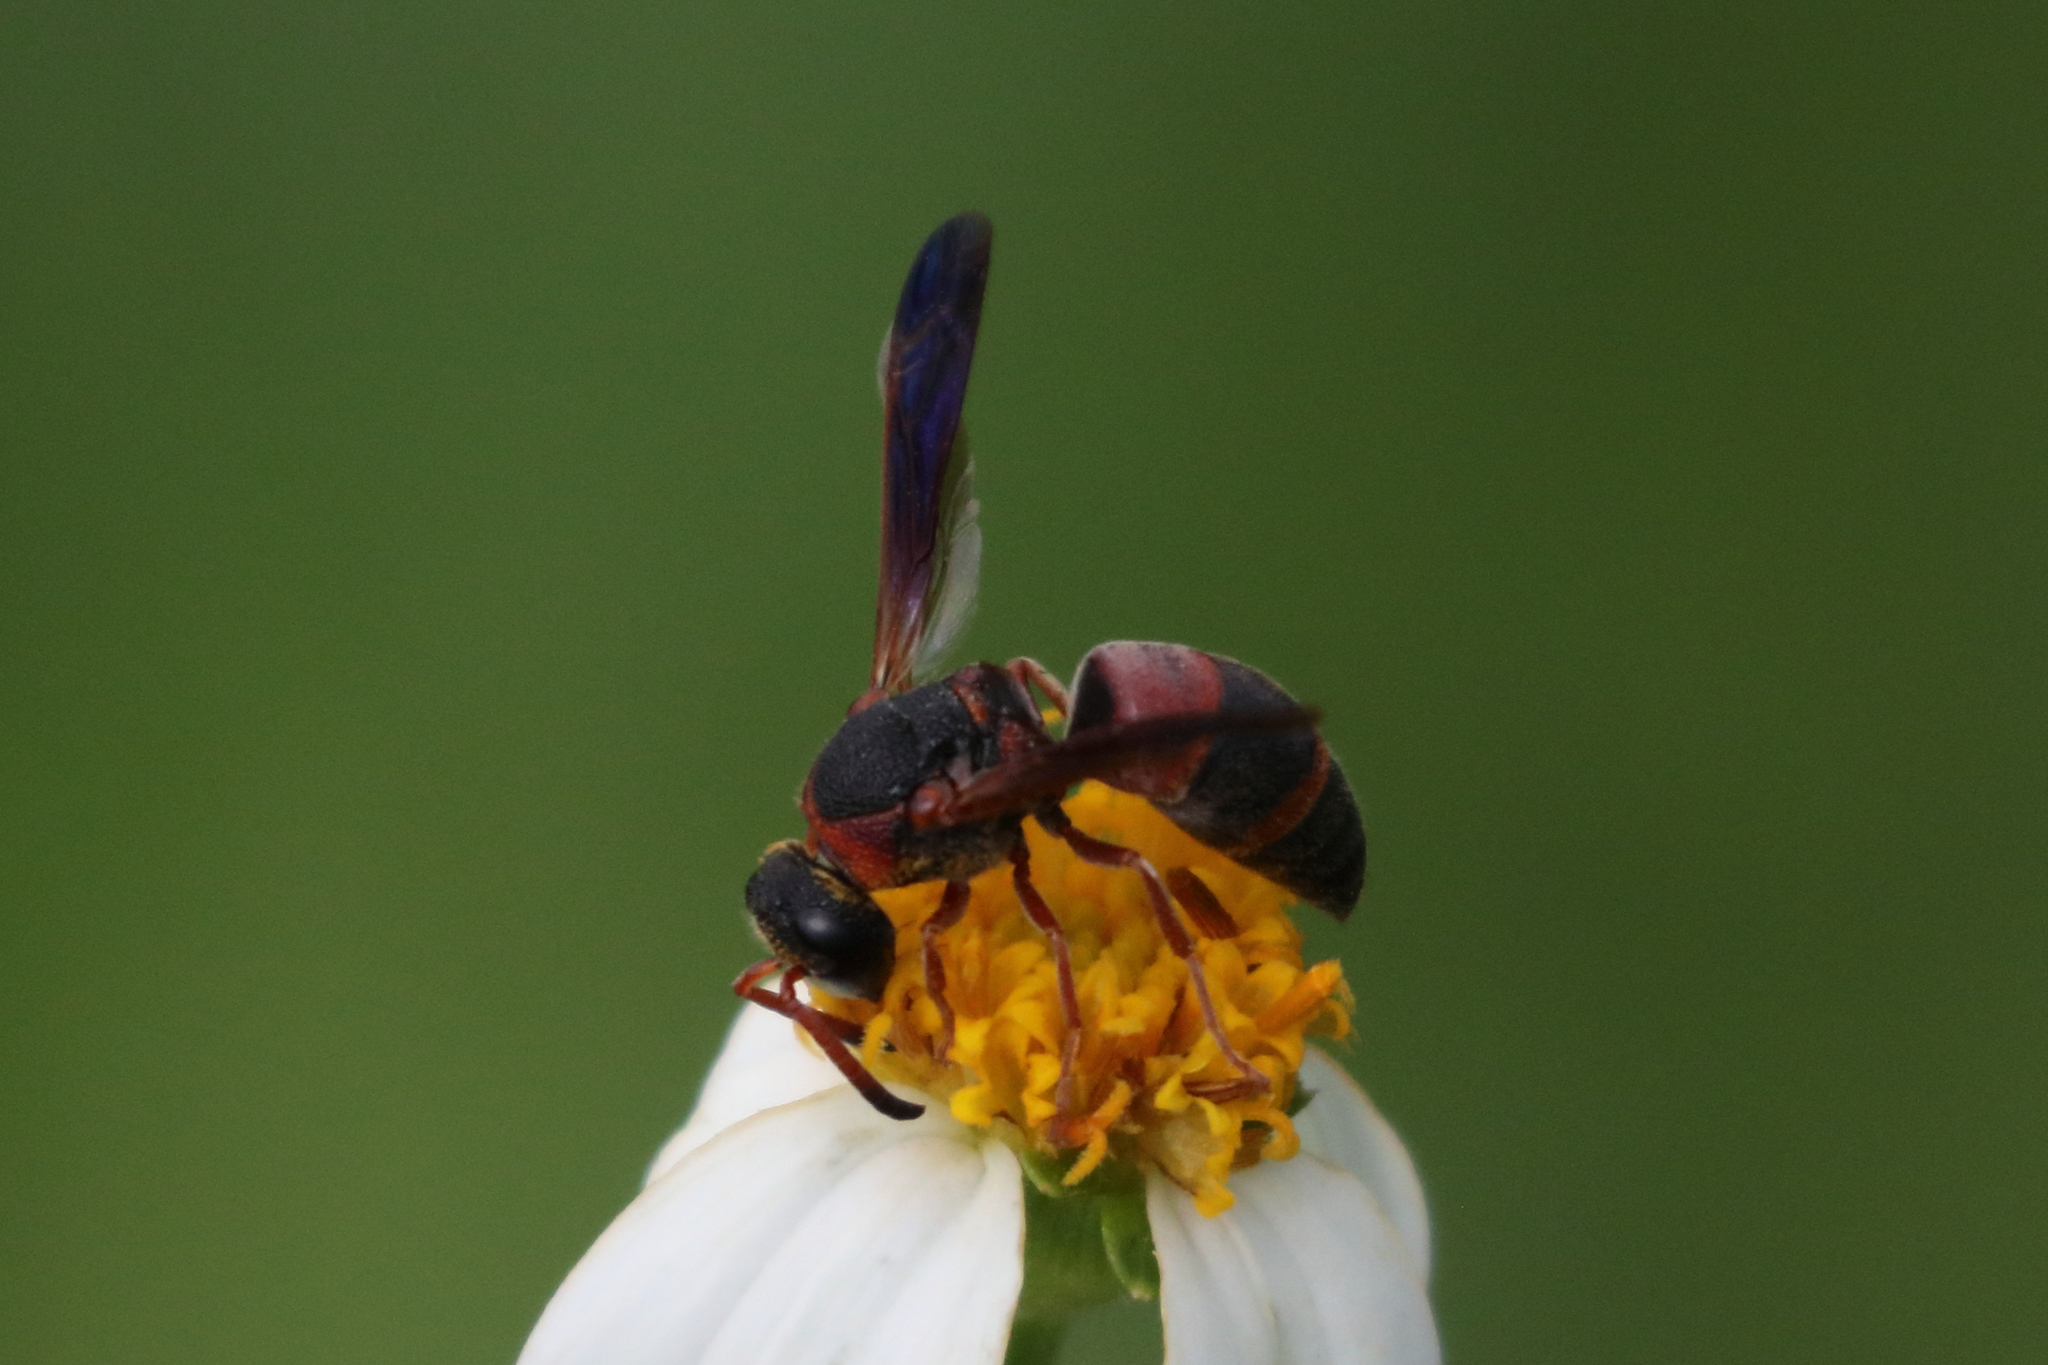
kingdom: Animalia
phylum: Arthropoda
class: Insecta
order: Hymenoptera
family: Eumenidae
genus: Pachodynerus
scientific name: Pachodynerus erynnis
